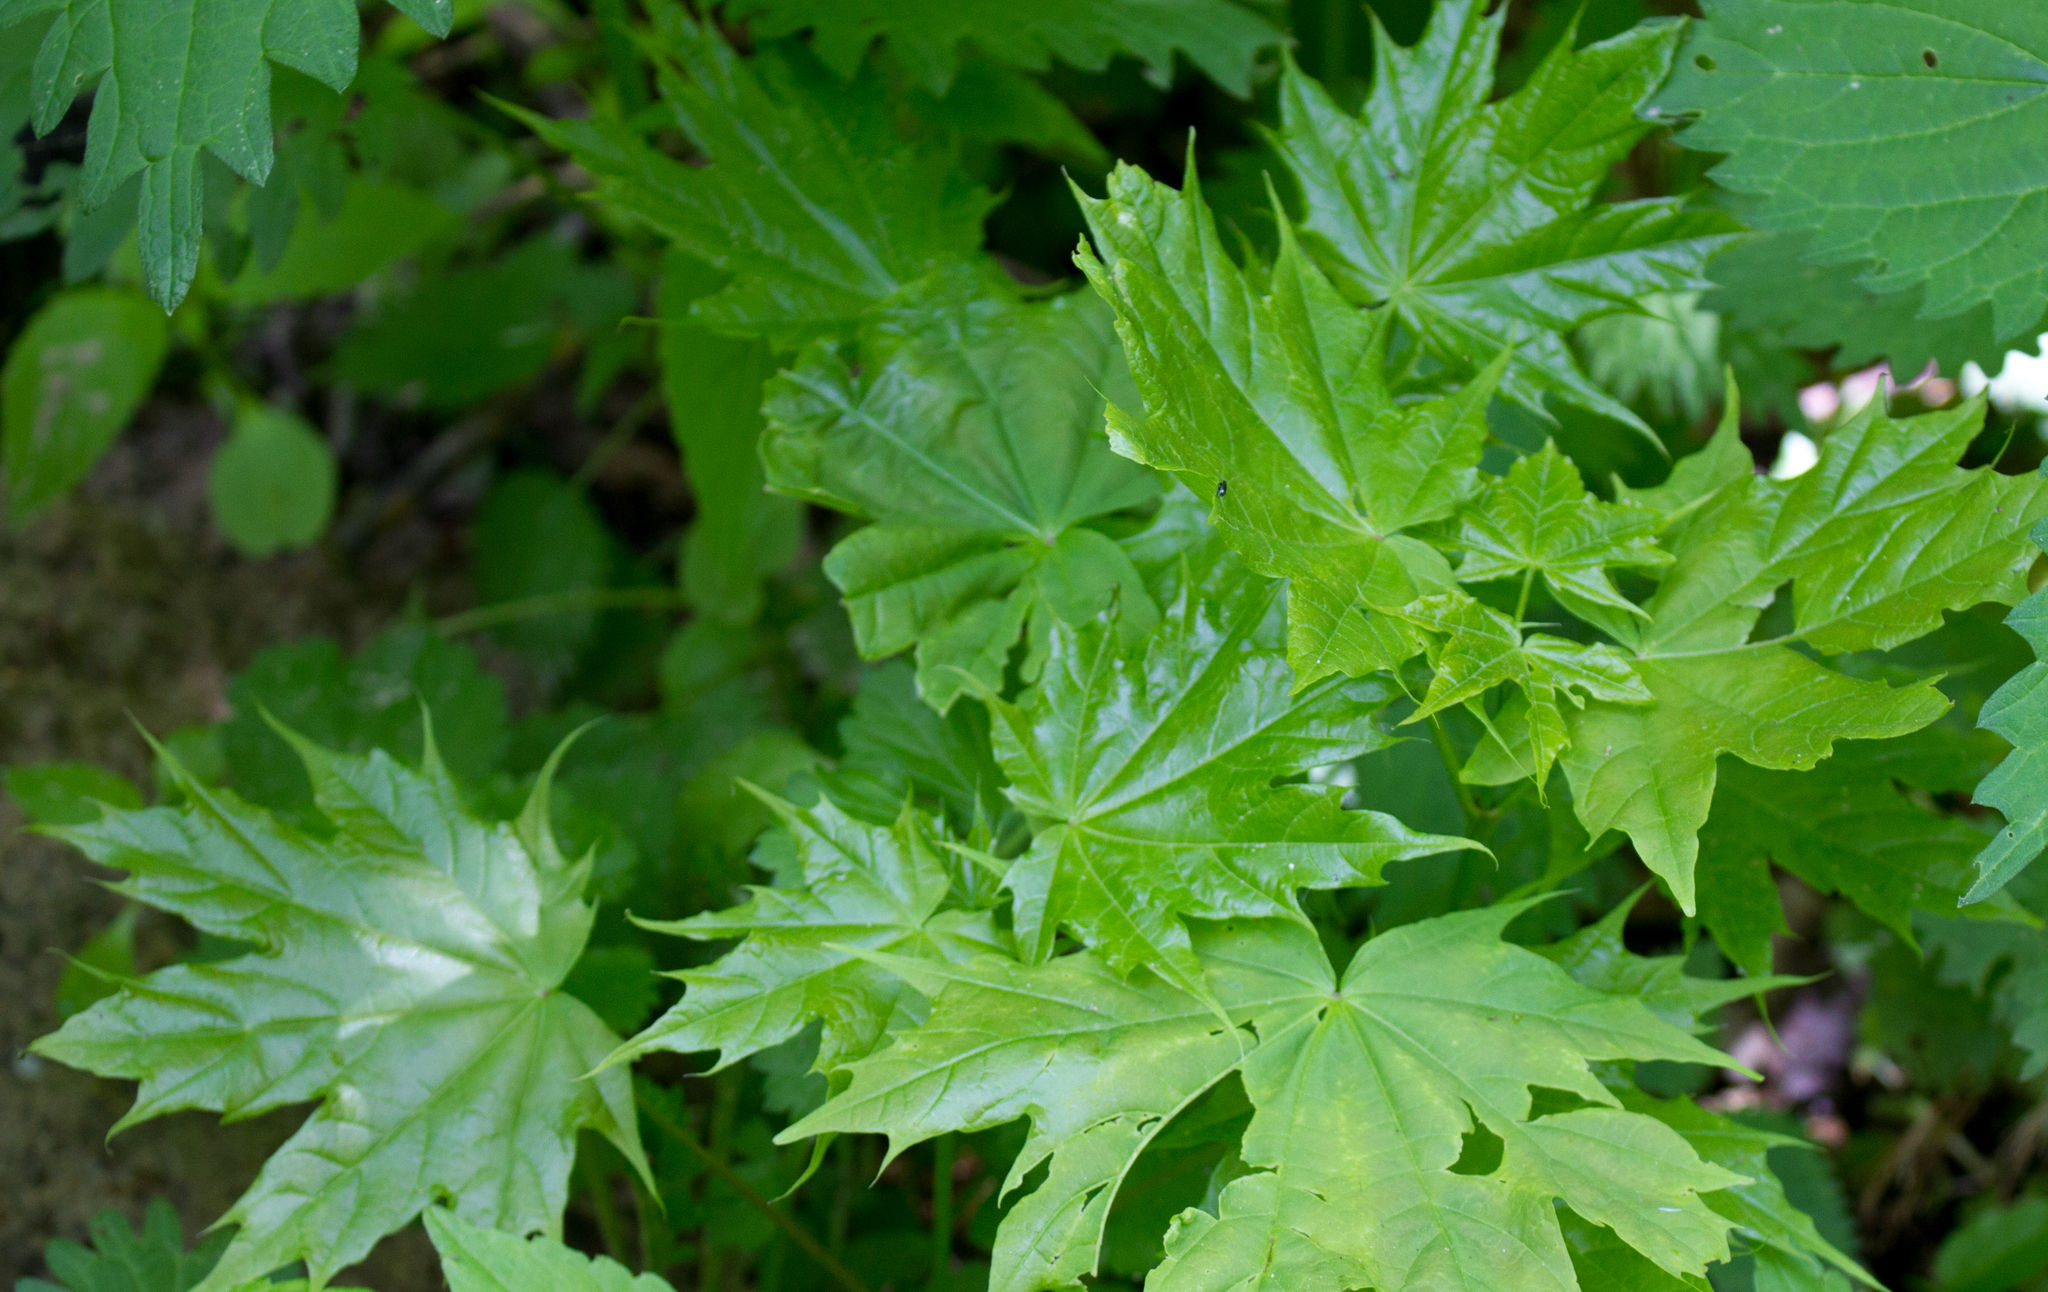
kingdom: Plantae
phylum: Tracheophyta
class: Magnoliopsida
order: Sapindales
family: Sapindaceae
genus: Acer
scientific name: Acer platanoides
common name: Norway maple
